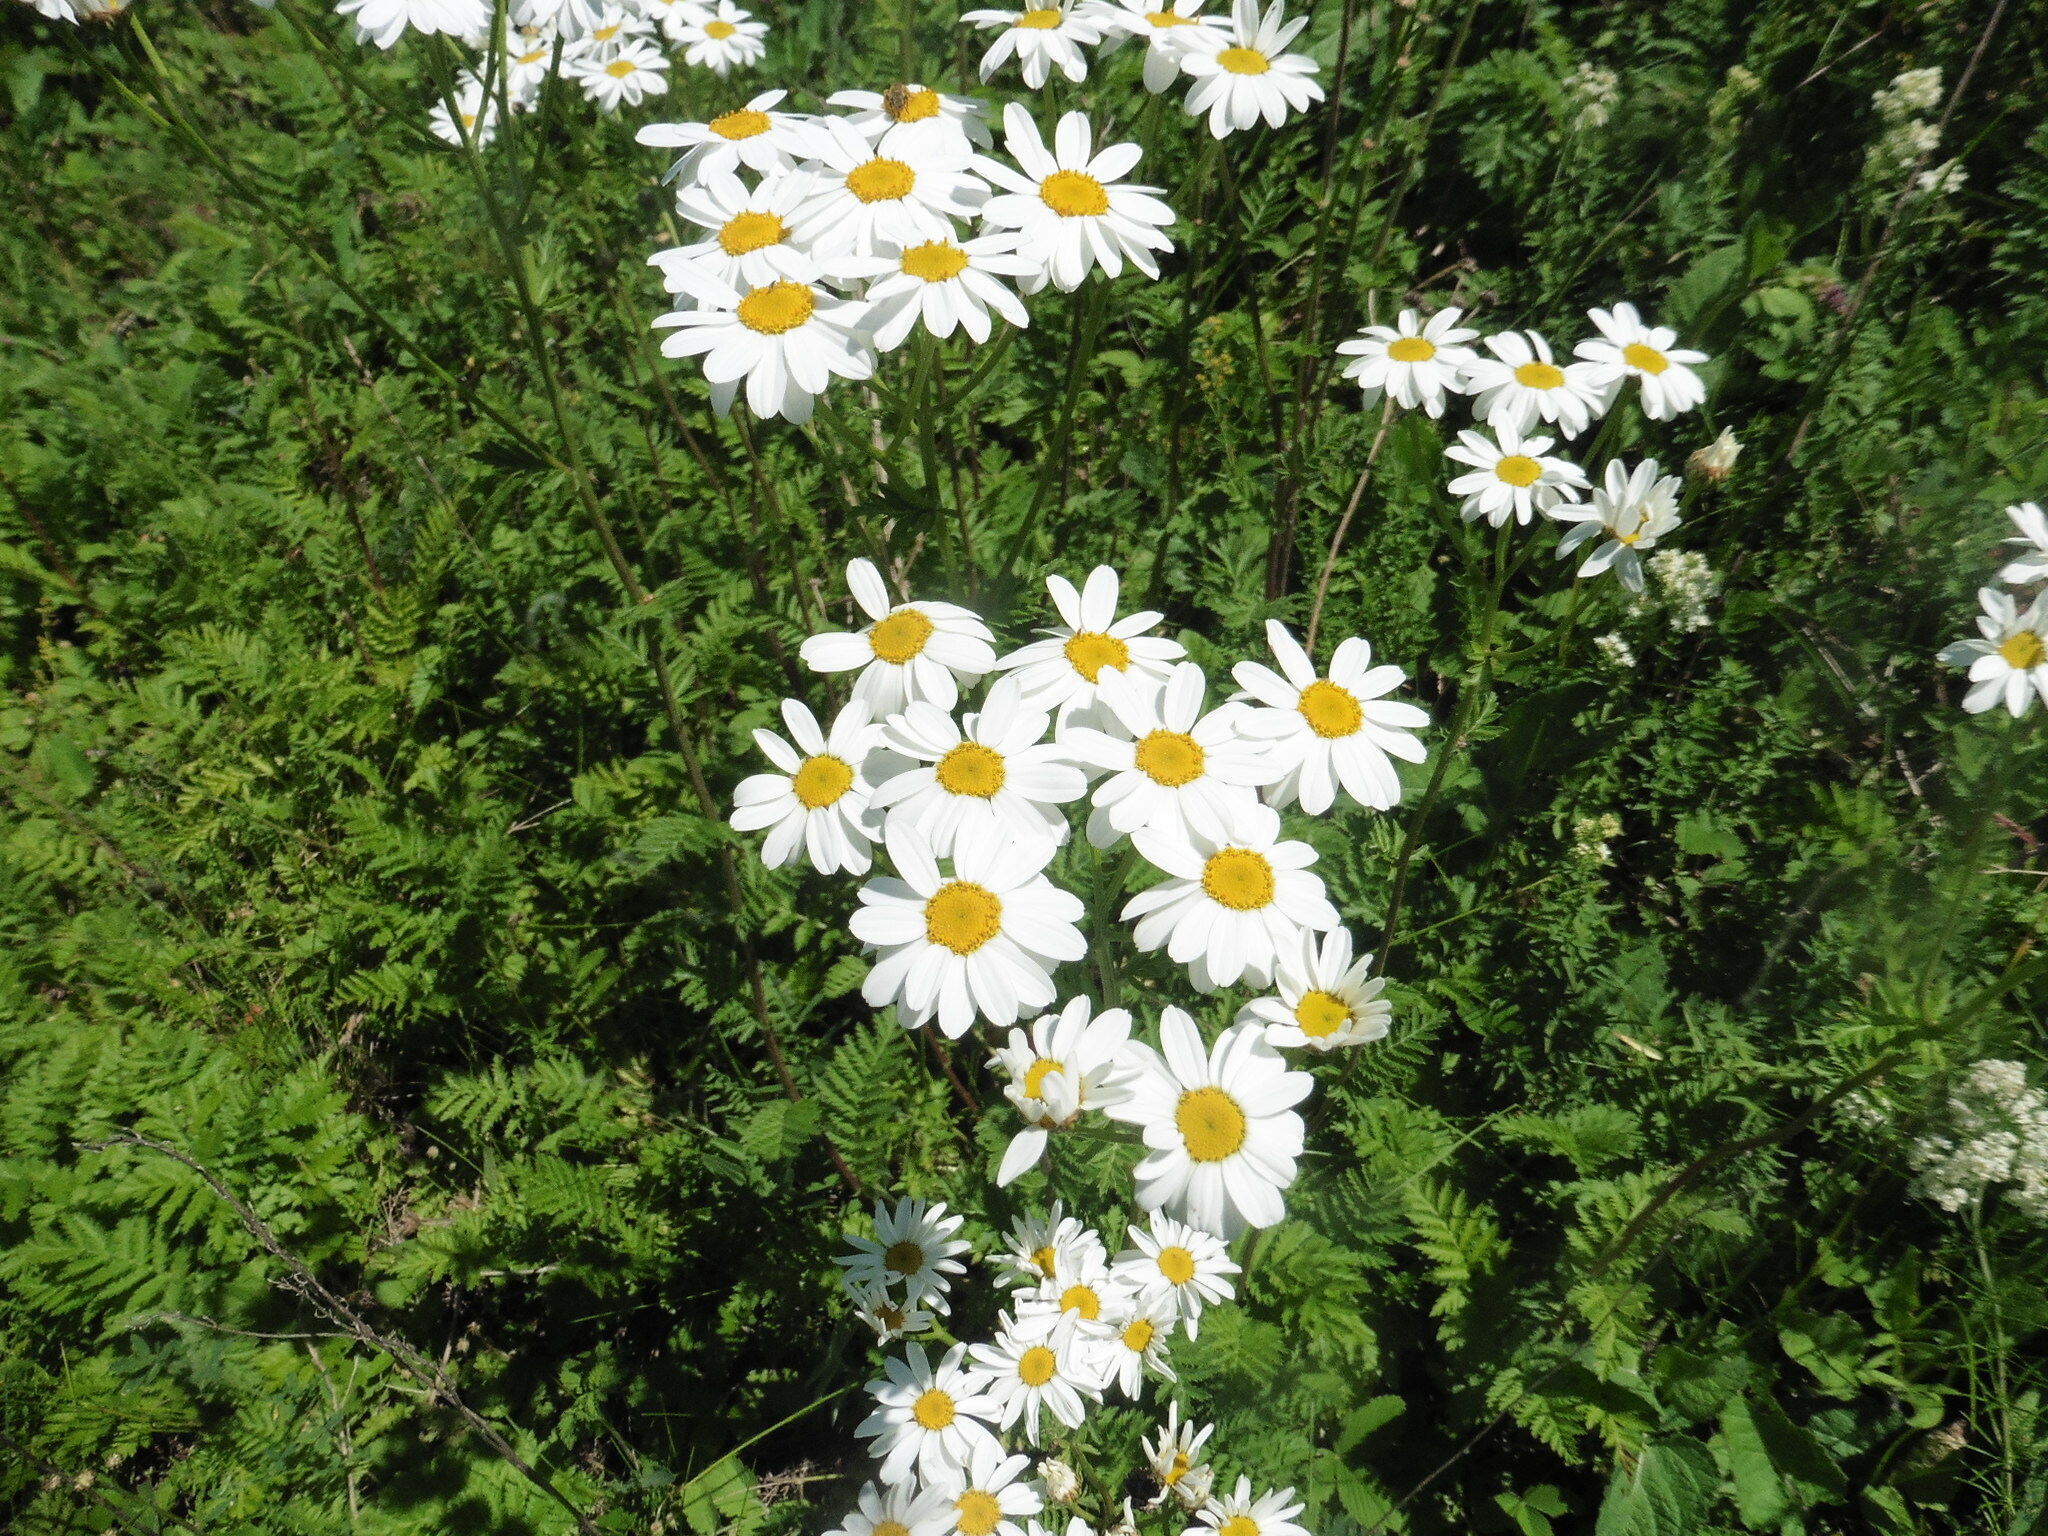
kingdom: Plantae
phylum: Tracheophyta
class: Magnoliopsida
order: Asterales
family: Asteraceae
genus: Tanacetum
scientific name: Tanacetum corymbosum
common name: Scentless feverfew
